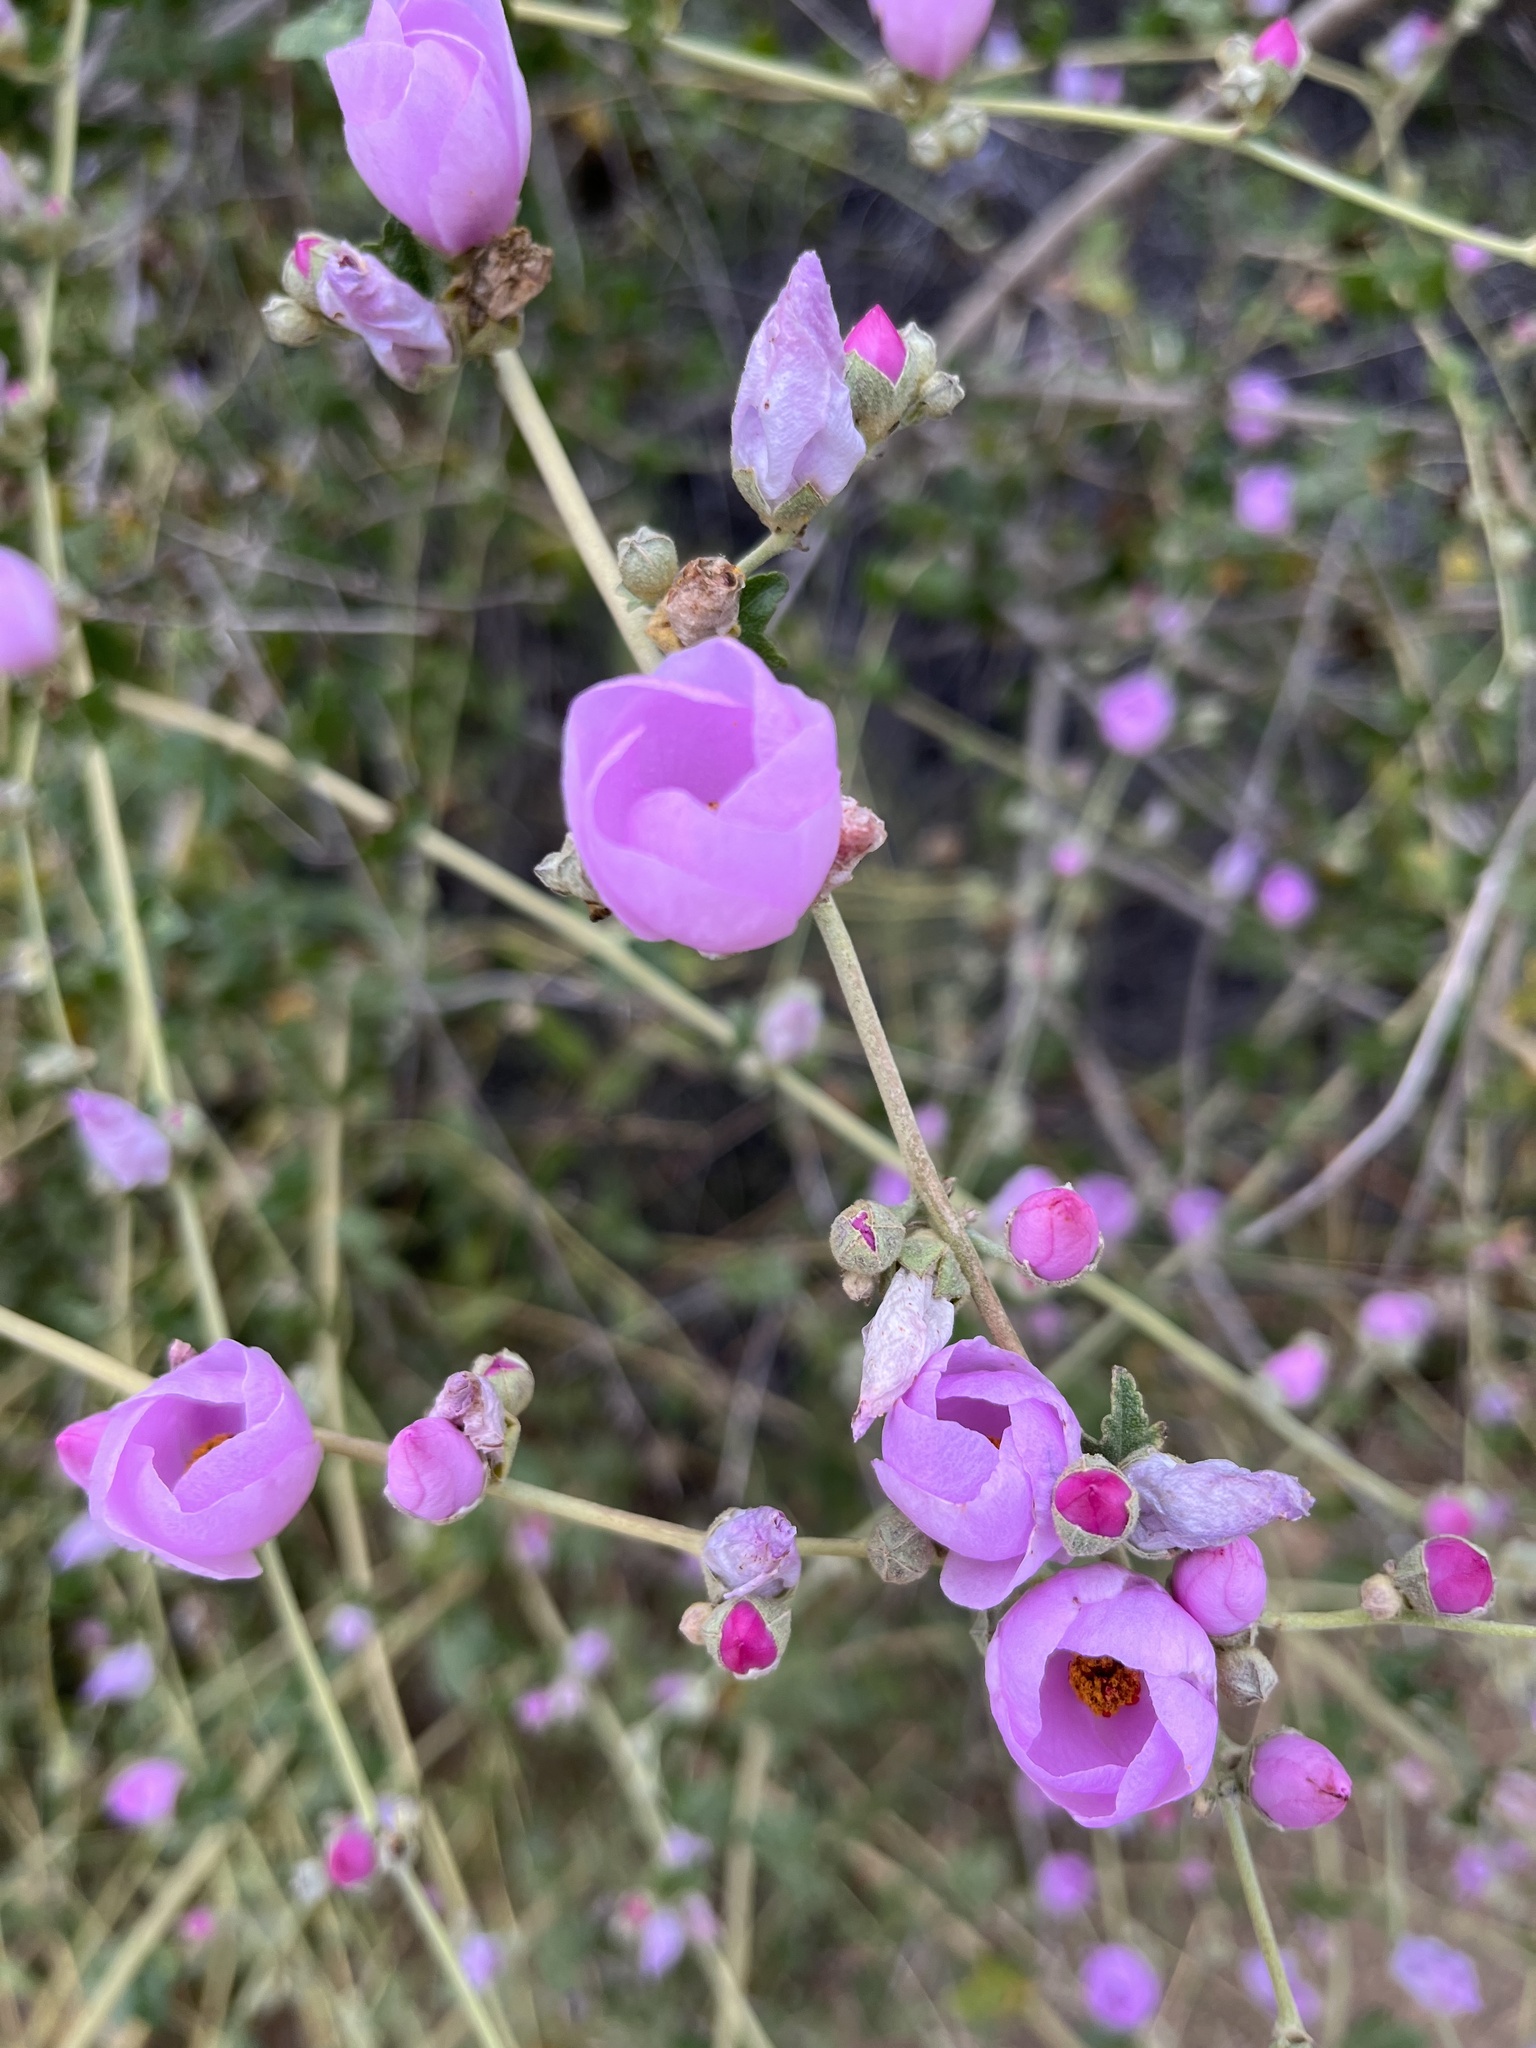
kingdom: Plantae
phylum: Tracheophyta
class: Magnoliopsida
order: Malvales
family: Malvaceae
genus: Malacothamnus
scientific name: Malacothamnus fasciculatus
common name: Sant cruz island bush-mallow
